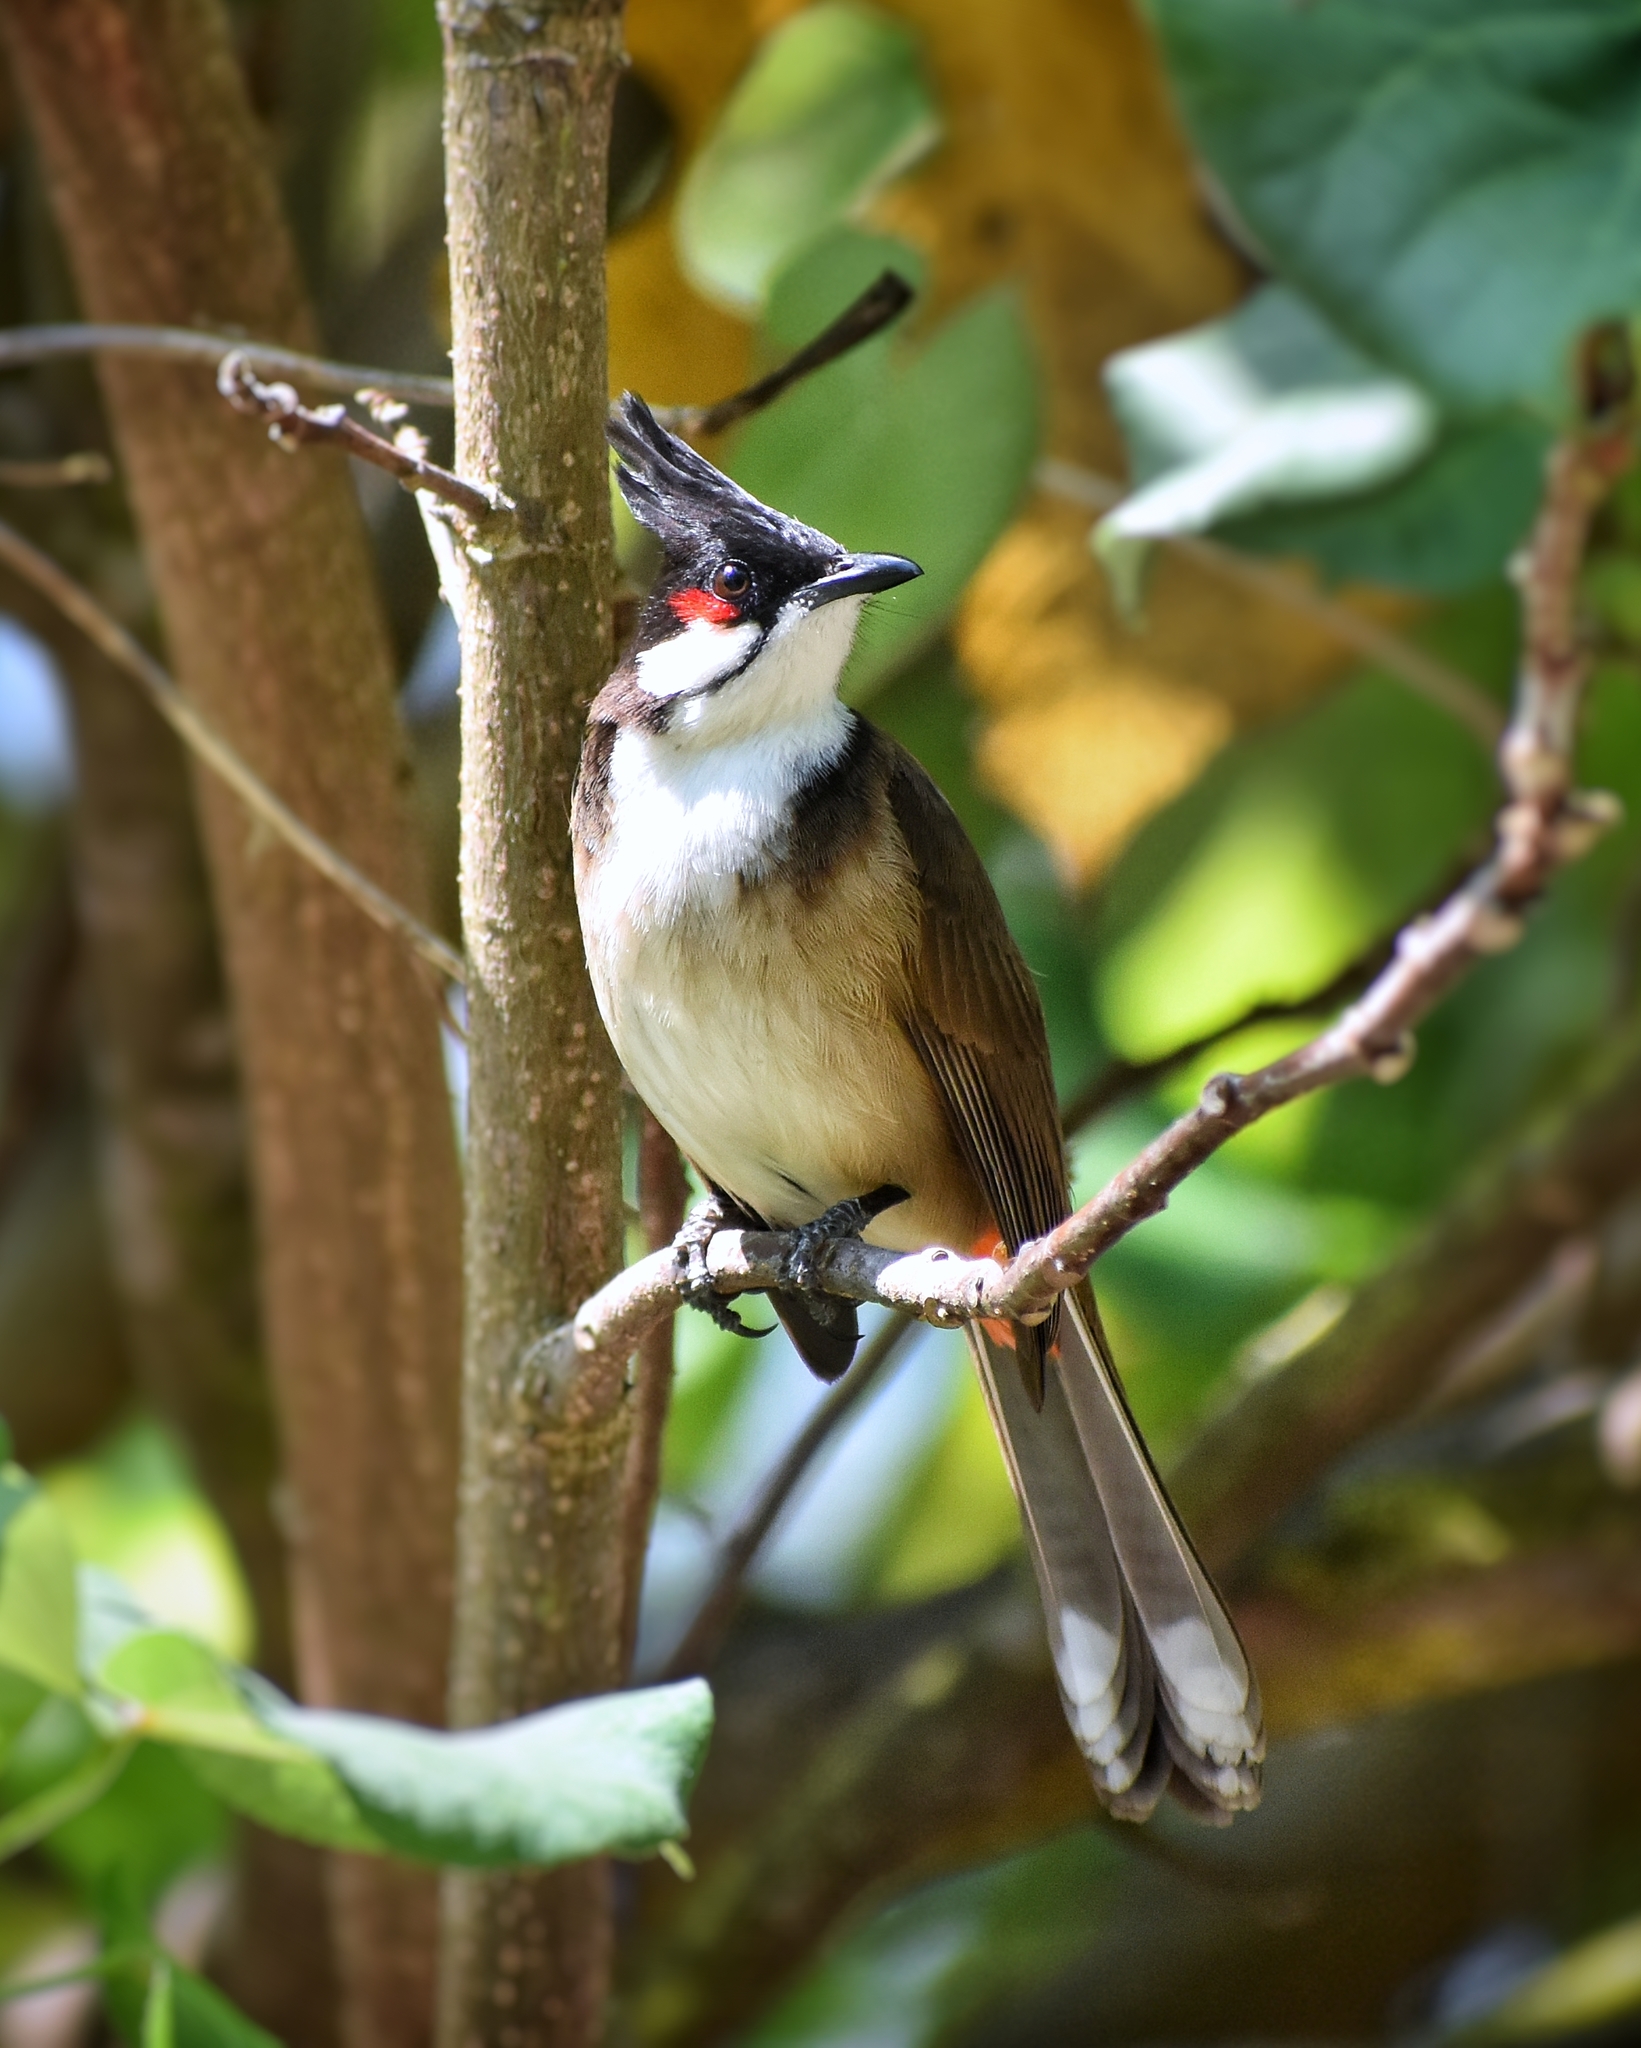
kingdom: Animalia
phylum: Chordata
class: Aves
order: Passeriformes
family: Pycnonotidae
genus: Pycnonotus
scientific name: Pycnonotus jocosus
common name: Red-whiskered bulbul
